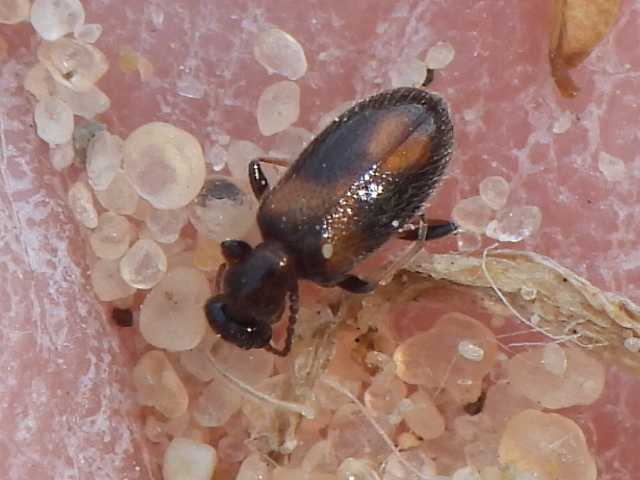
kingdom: Animalia
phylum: Arthropoda
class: Insecta
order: Coleoptera
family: Anthicidae
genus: Anthicus
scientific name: Anthicus crinitus
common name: Antlike flower beetle
